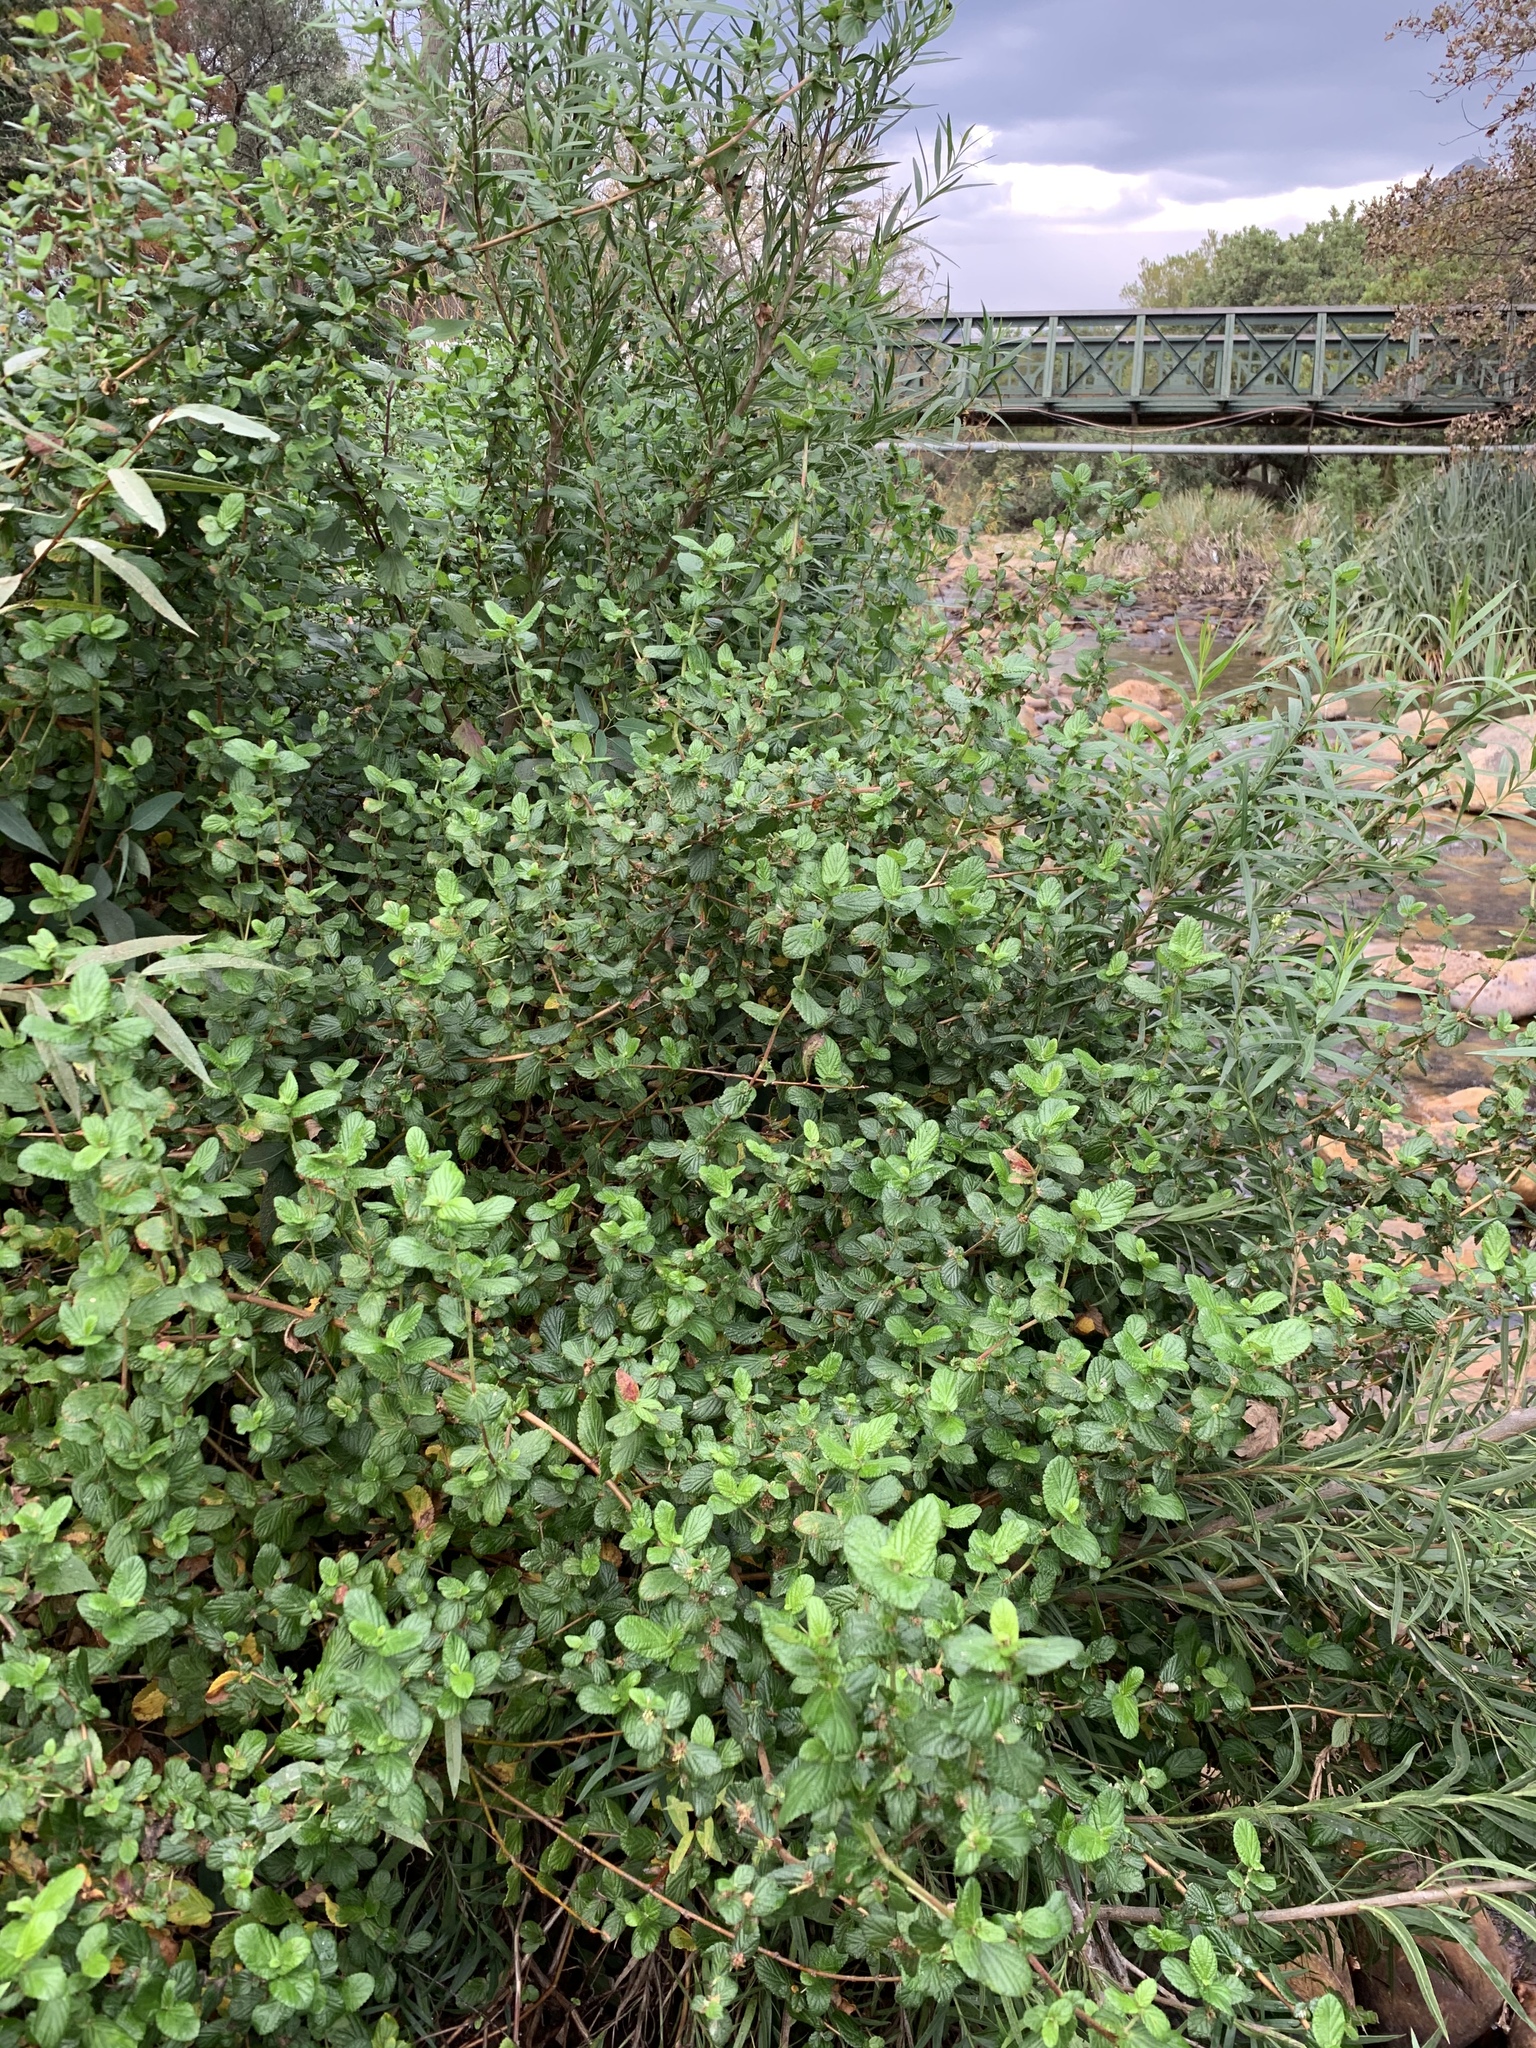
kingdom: Plantae
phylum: Tracheophyta
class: Magnoliopsida
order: Rosales
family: Rosaceae
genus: Cliffortia
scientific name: Cliffortia odorata
